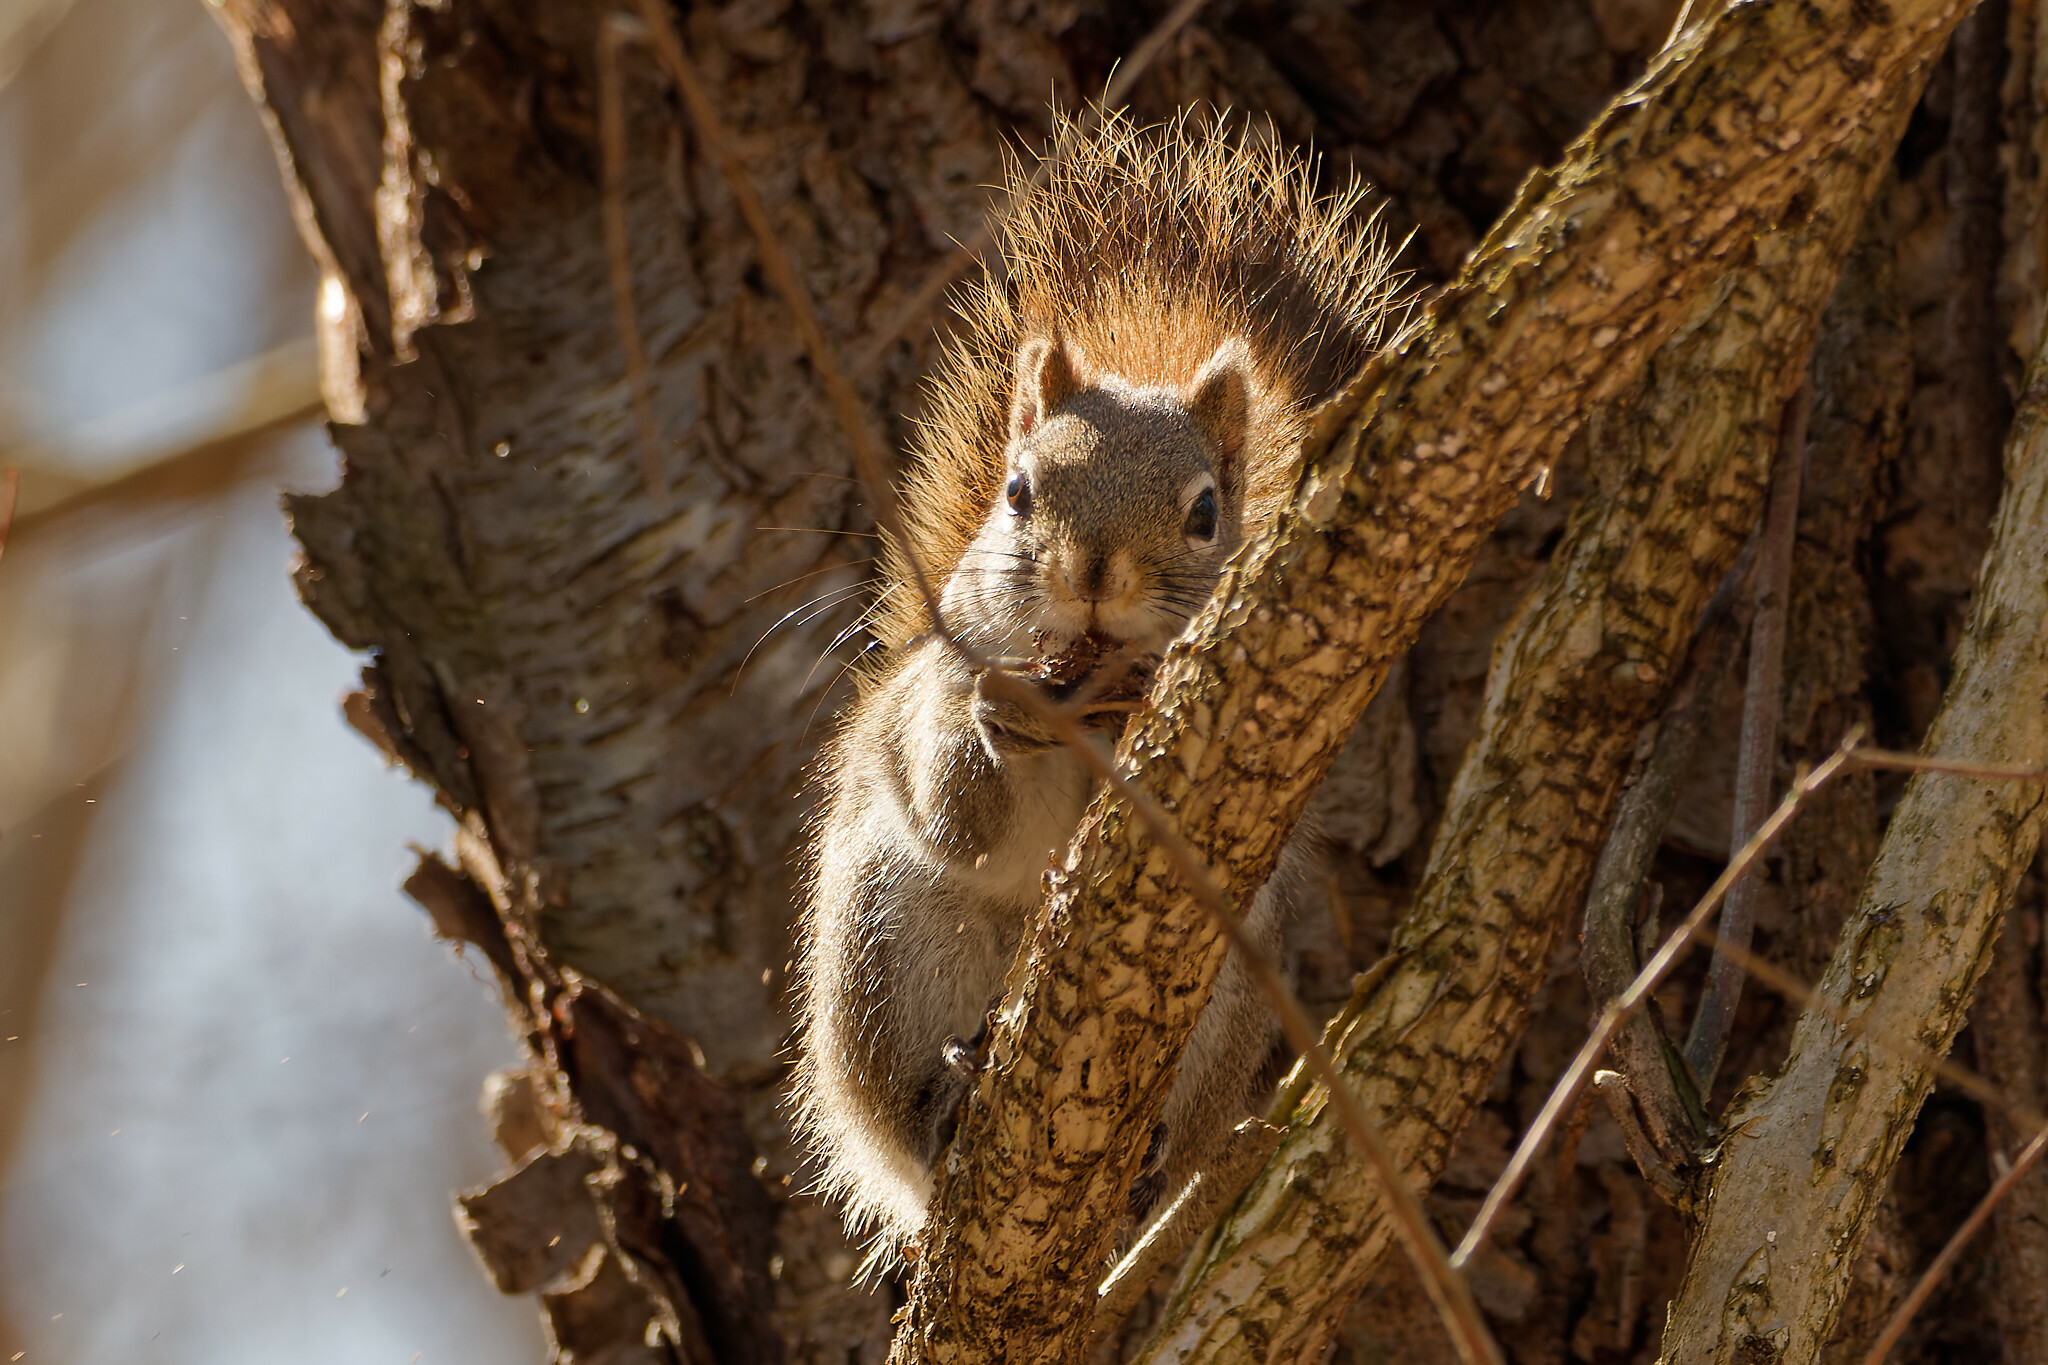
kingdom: Animalia
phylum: Chordata
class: Mammalia
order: Rodentia
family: Sciuridae
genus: Tamiasciurus
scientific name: Tamiasciurus hudsonicus
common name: Red squirrel
